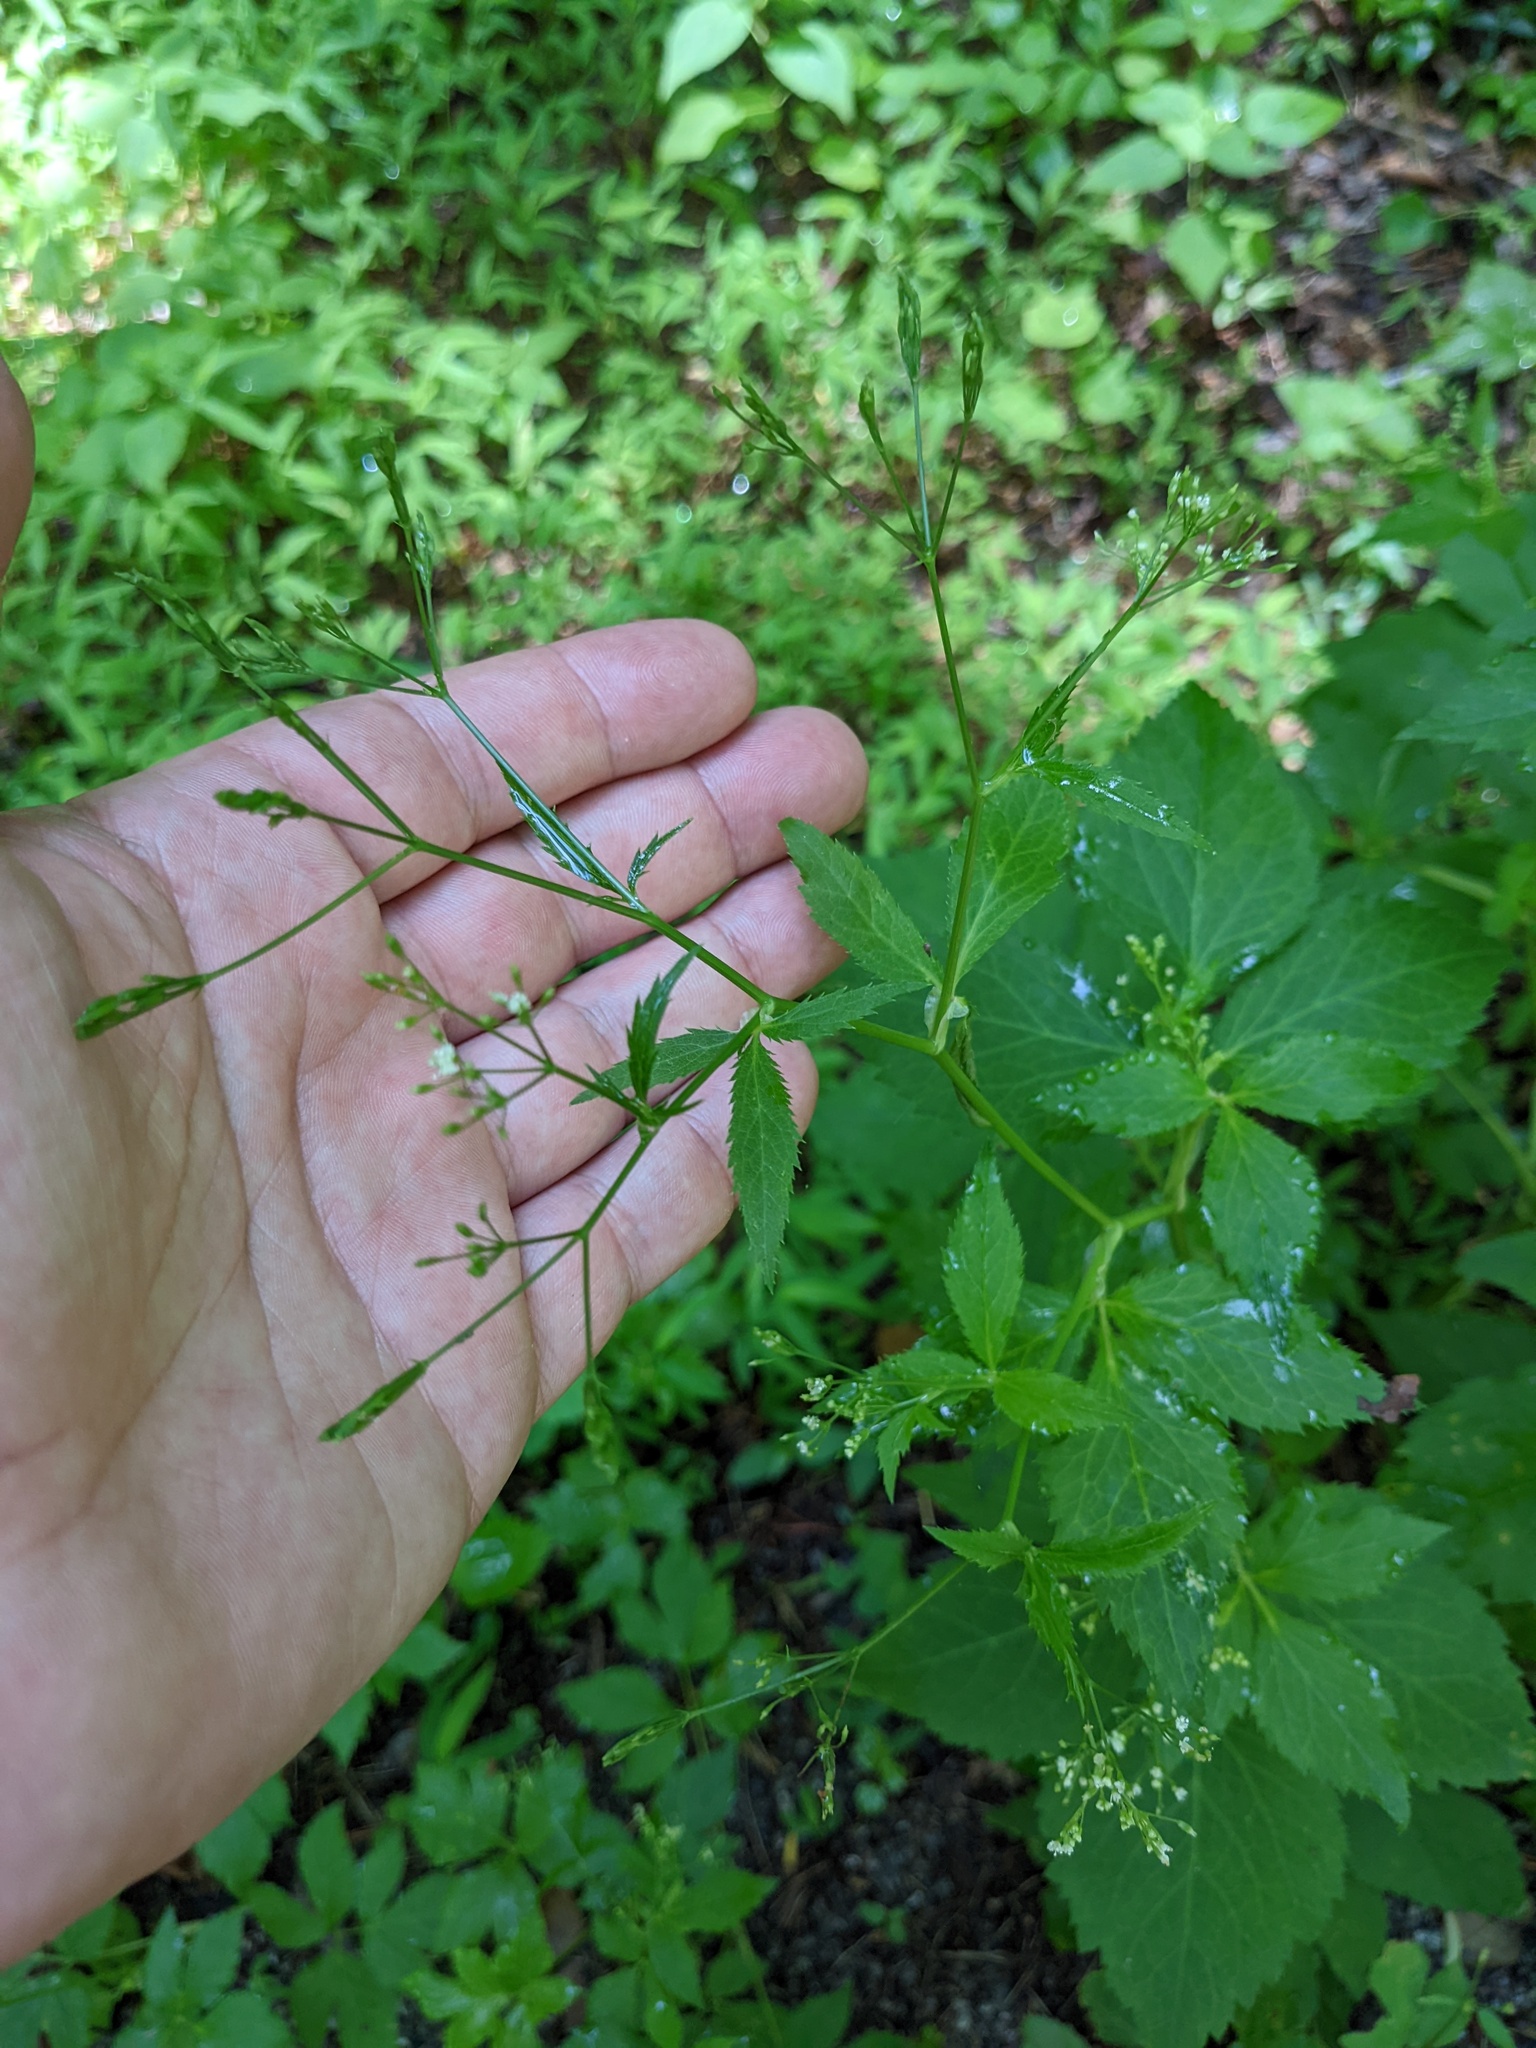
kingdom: Plantae
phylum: Tracheophyta
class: Magnoliopsida
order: Apiales
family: Apiaceae
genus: Cryptotaenia
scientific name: Cryptotaenia canadensis
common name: Honewort
